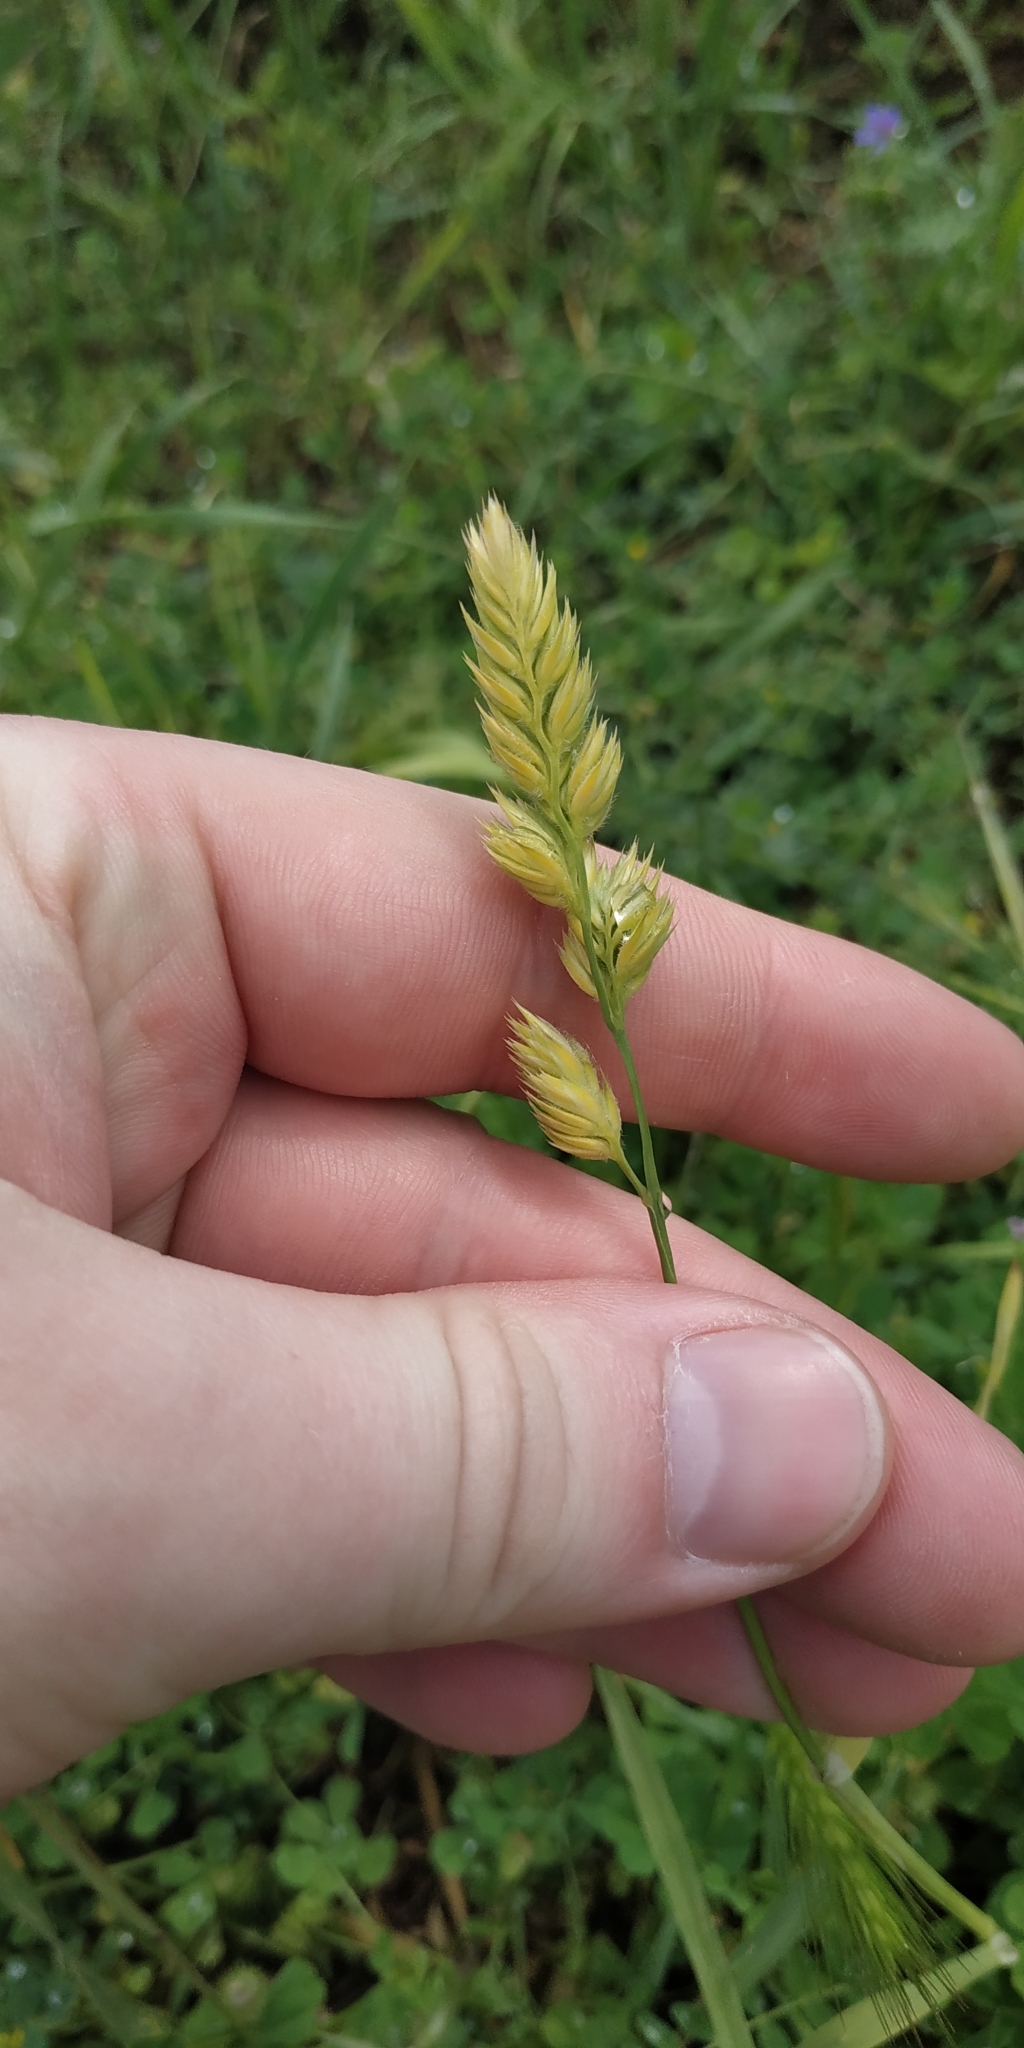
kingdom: Plantae
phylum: Tracheophyta
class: Liliopsida
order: Poales
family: Poaceae
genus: Dactylis
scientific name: Dactylis glomerata
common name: Orchardgrass
